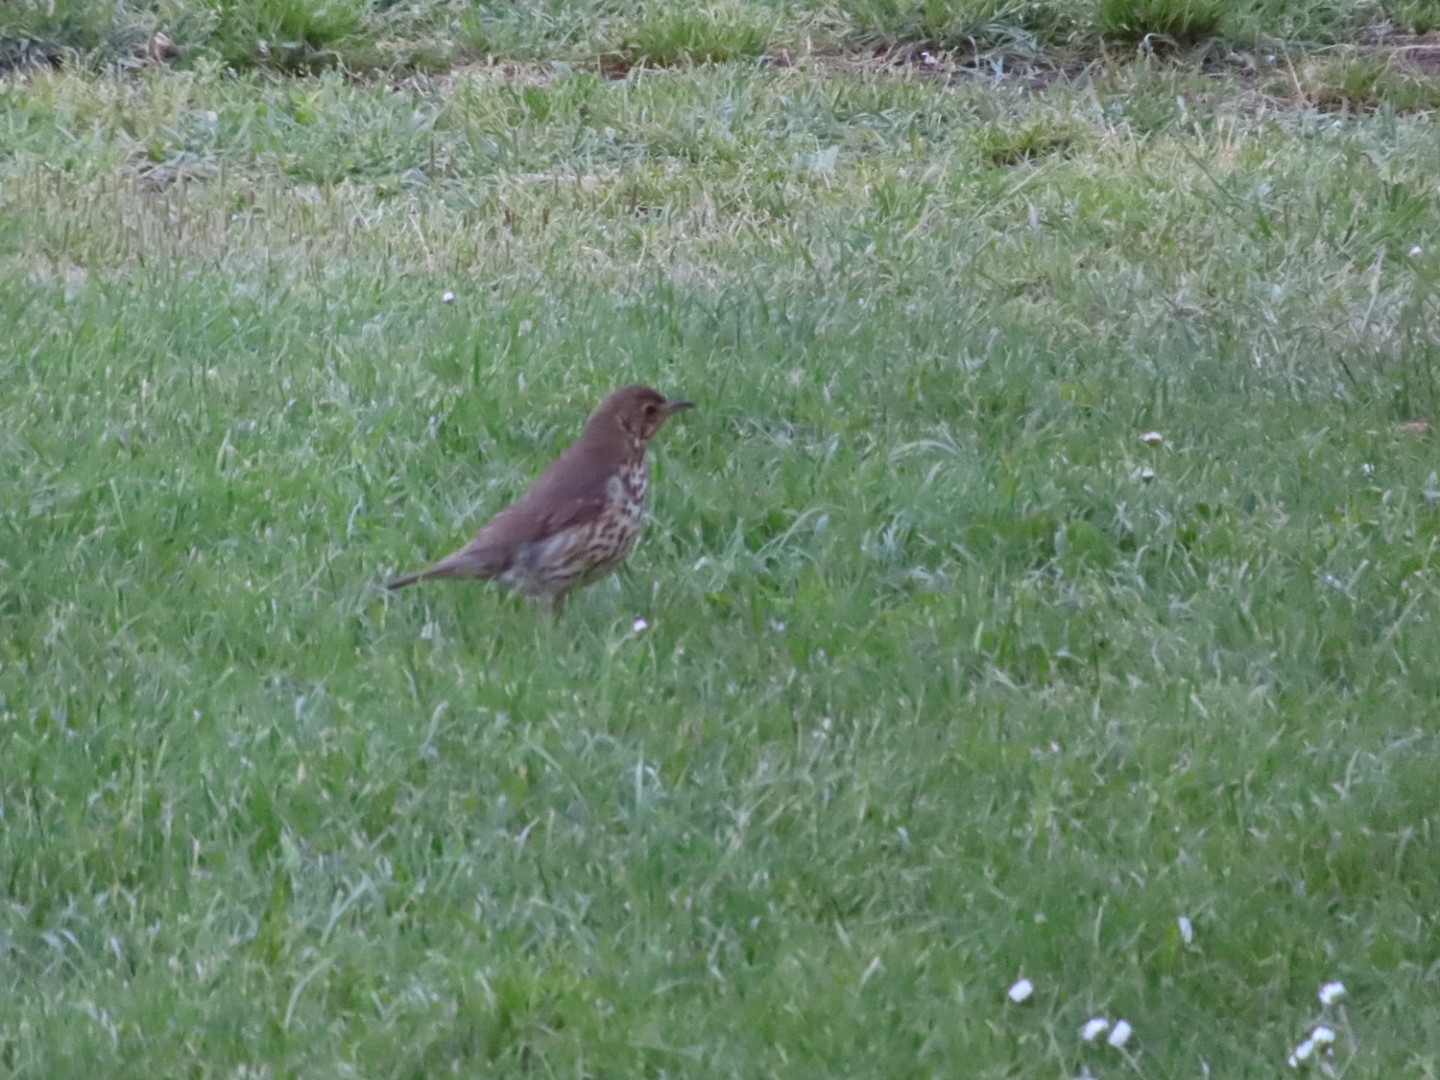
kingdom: Animalia
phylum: Chordata
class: Aves
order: Passeriformes
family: Turdidae
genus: Turdus
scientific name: Turdus philomelos
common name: Song thrush
